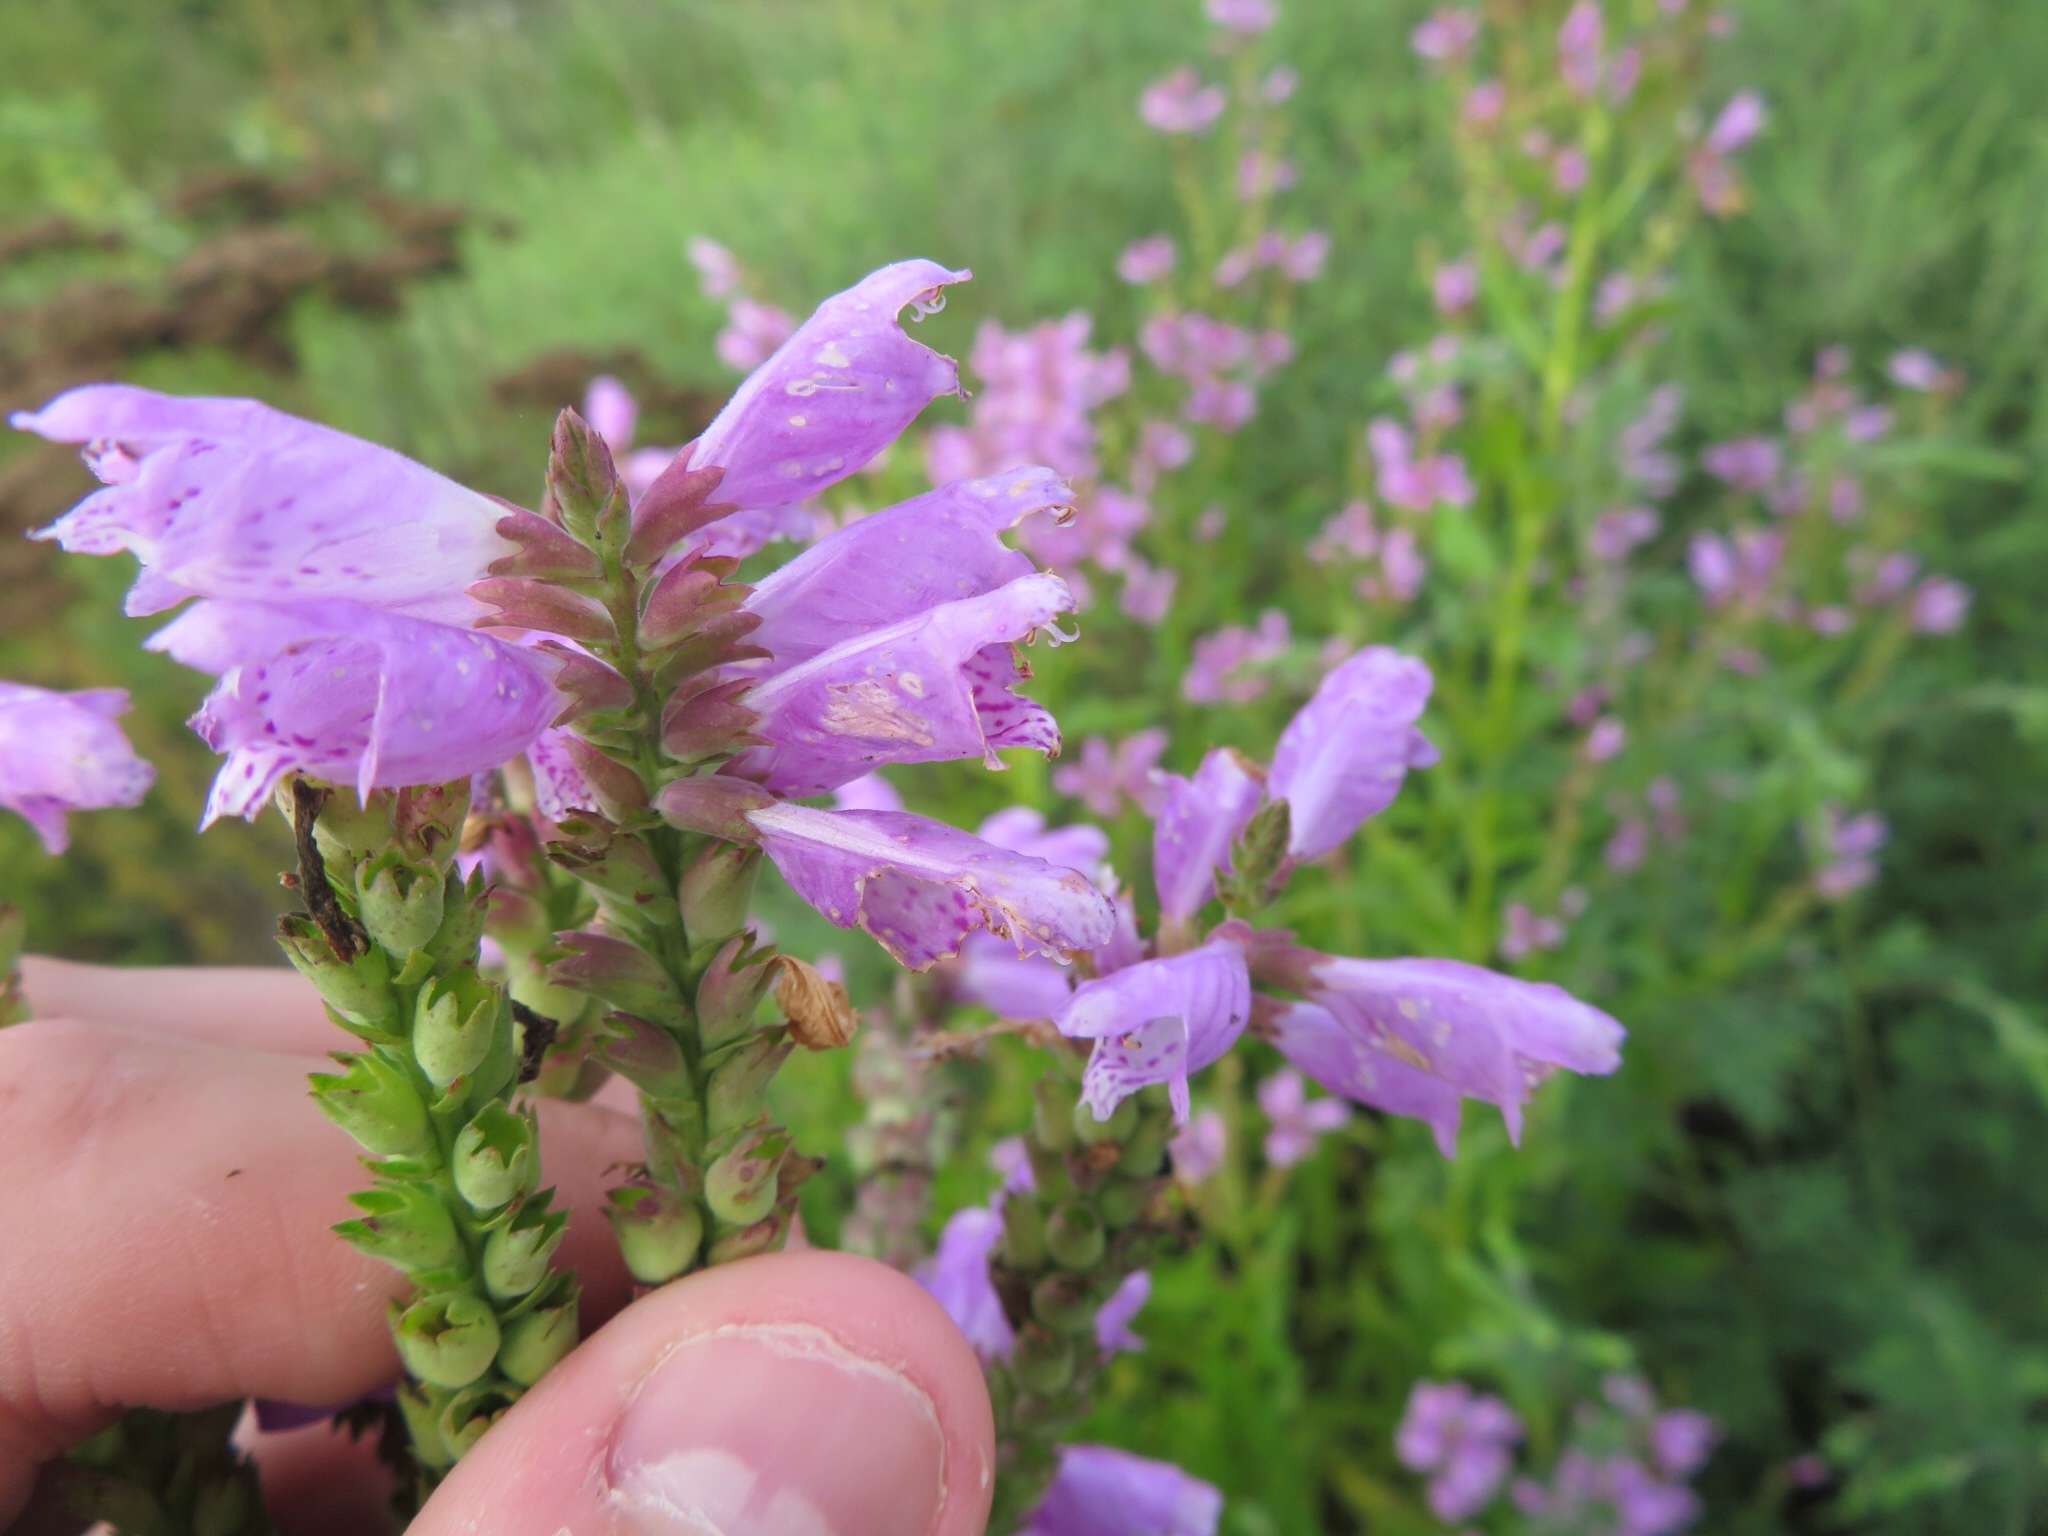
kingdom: Plantae
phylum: Tracheophyta
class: Magnoliopsida
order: Lamiales
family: Lamiaceae
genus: Physostegia
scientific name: Physostegia virginiana
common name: Obedient-plant
